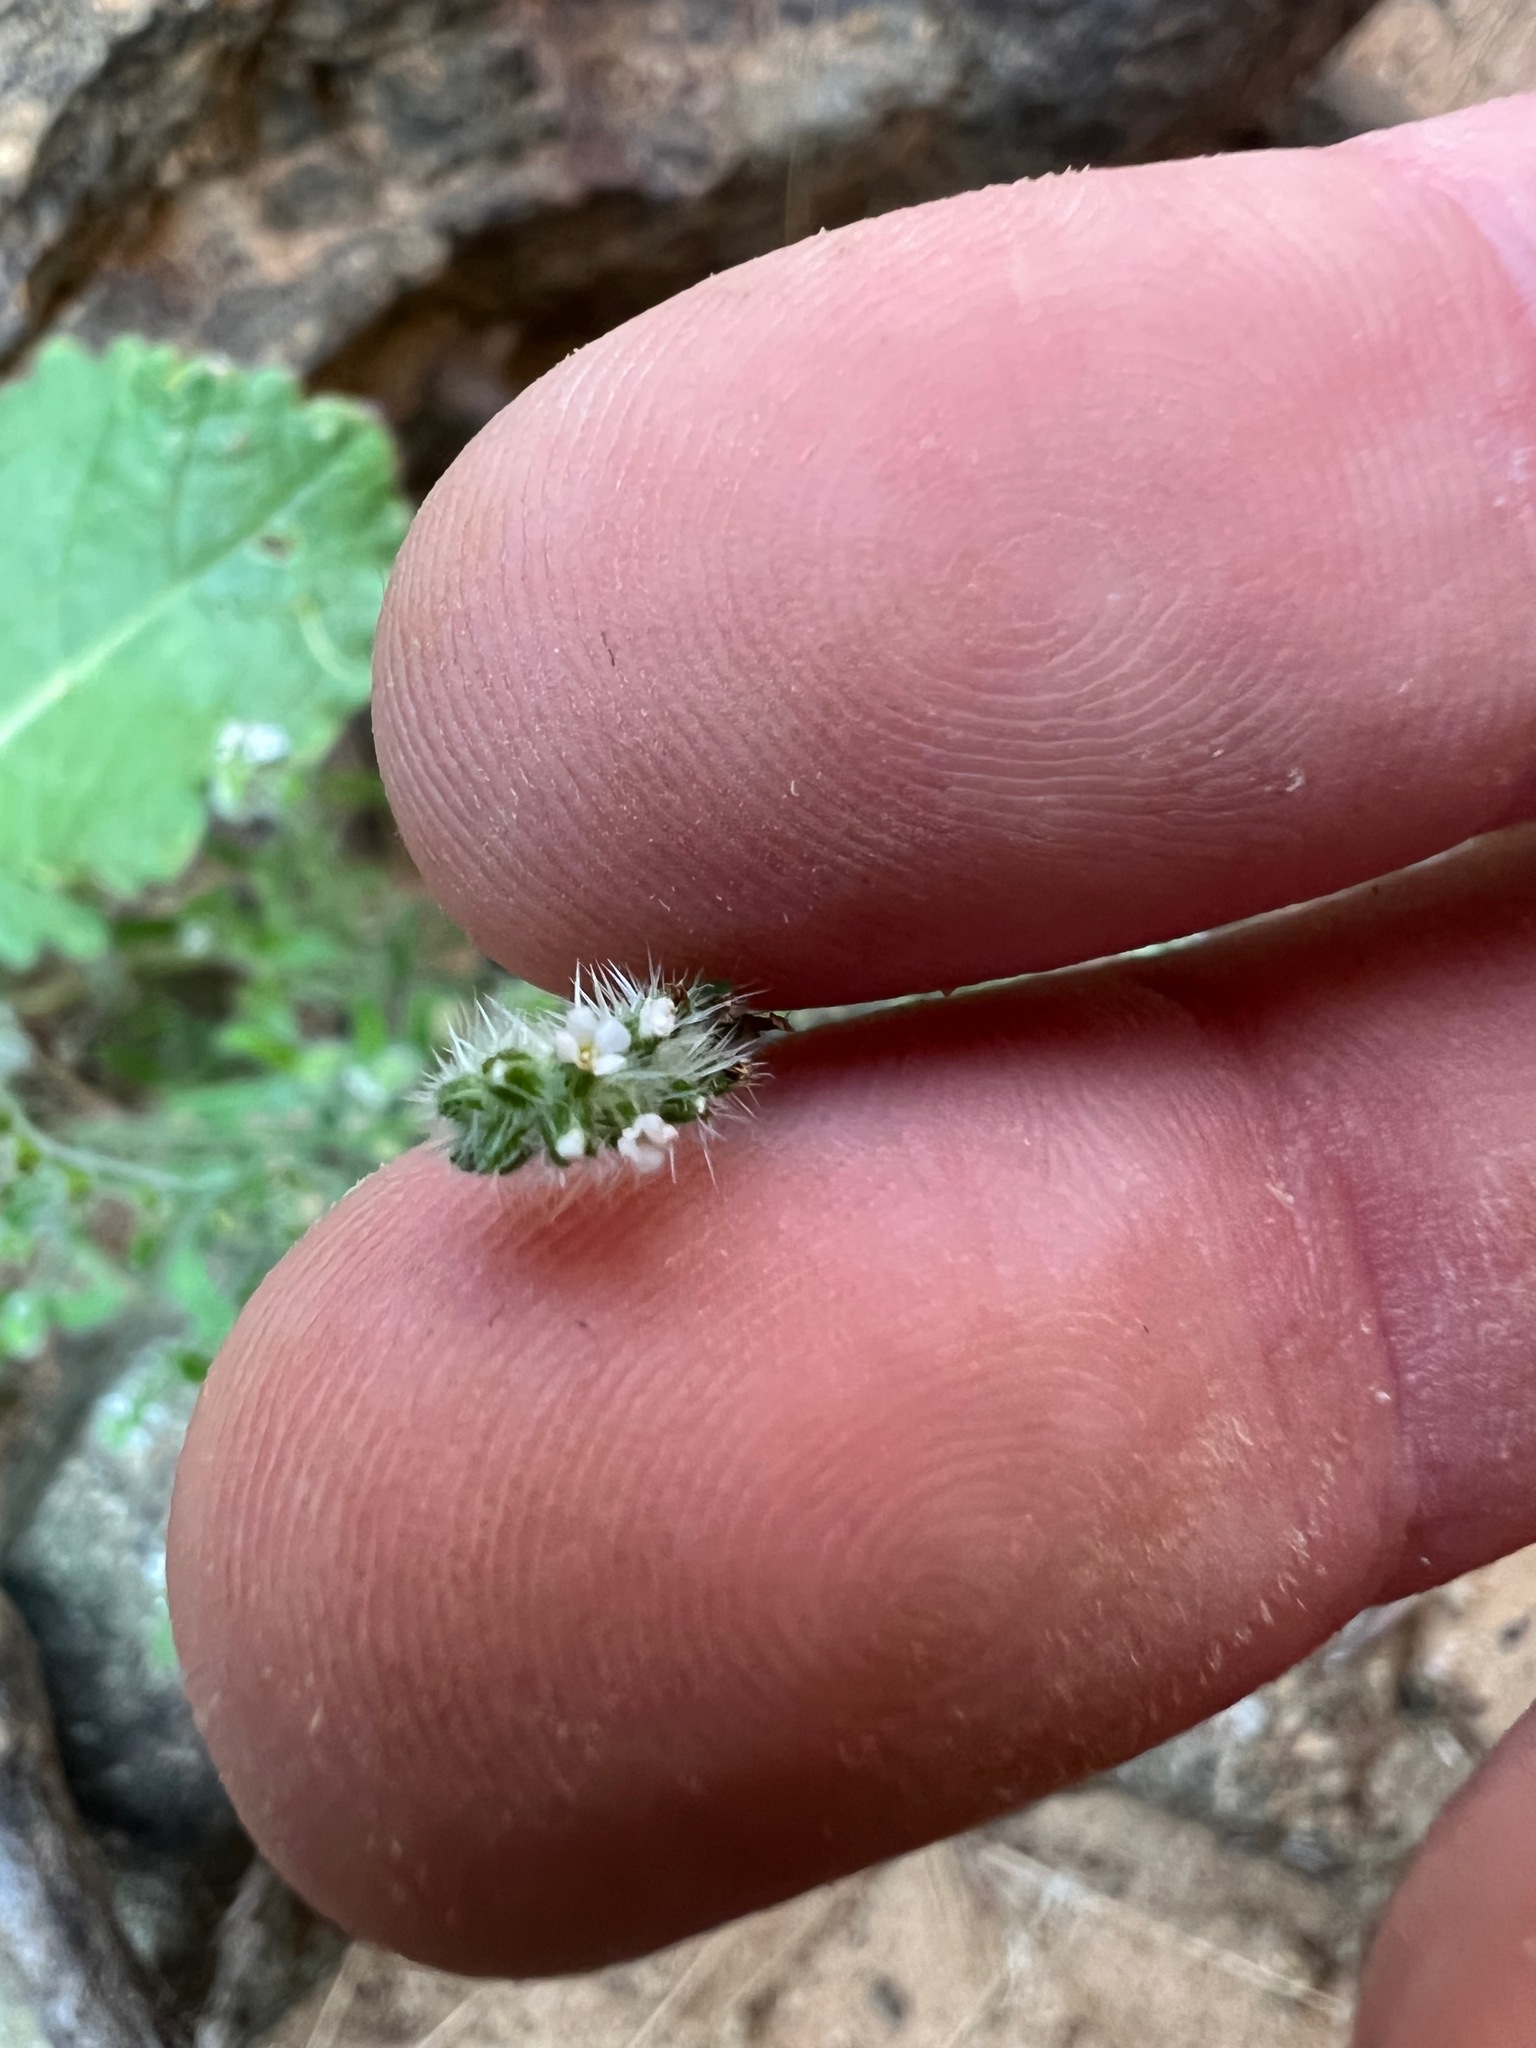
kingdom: Plantae
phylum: Tracheophyta
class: Magnoliopsida
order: Boraginales
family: Boraginaceae
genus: Cryptantha
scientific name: Cryptantha microstachys
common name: Tejon cryptantha
